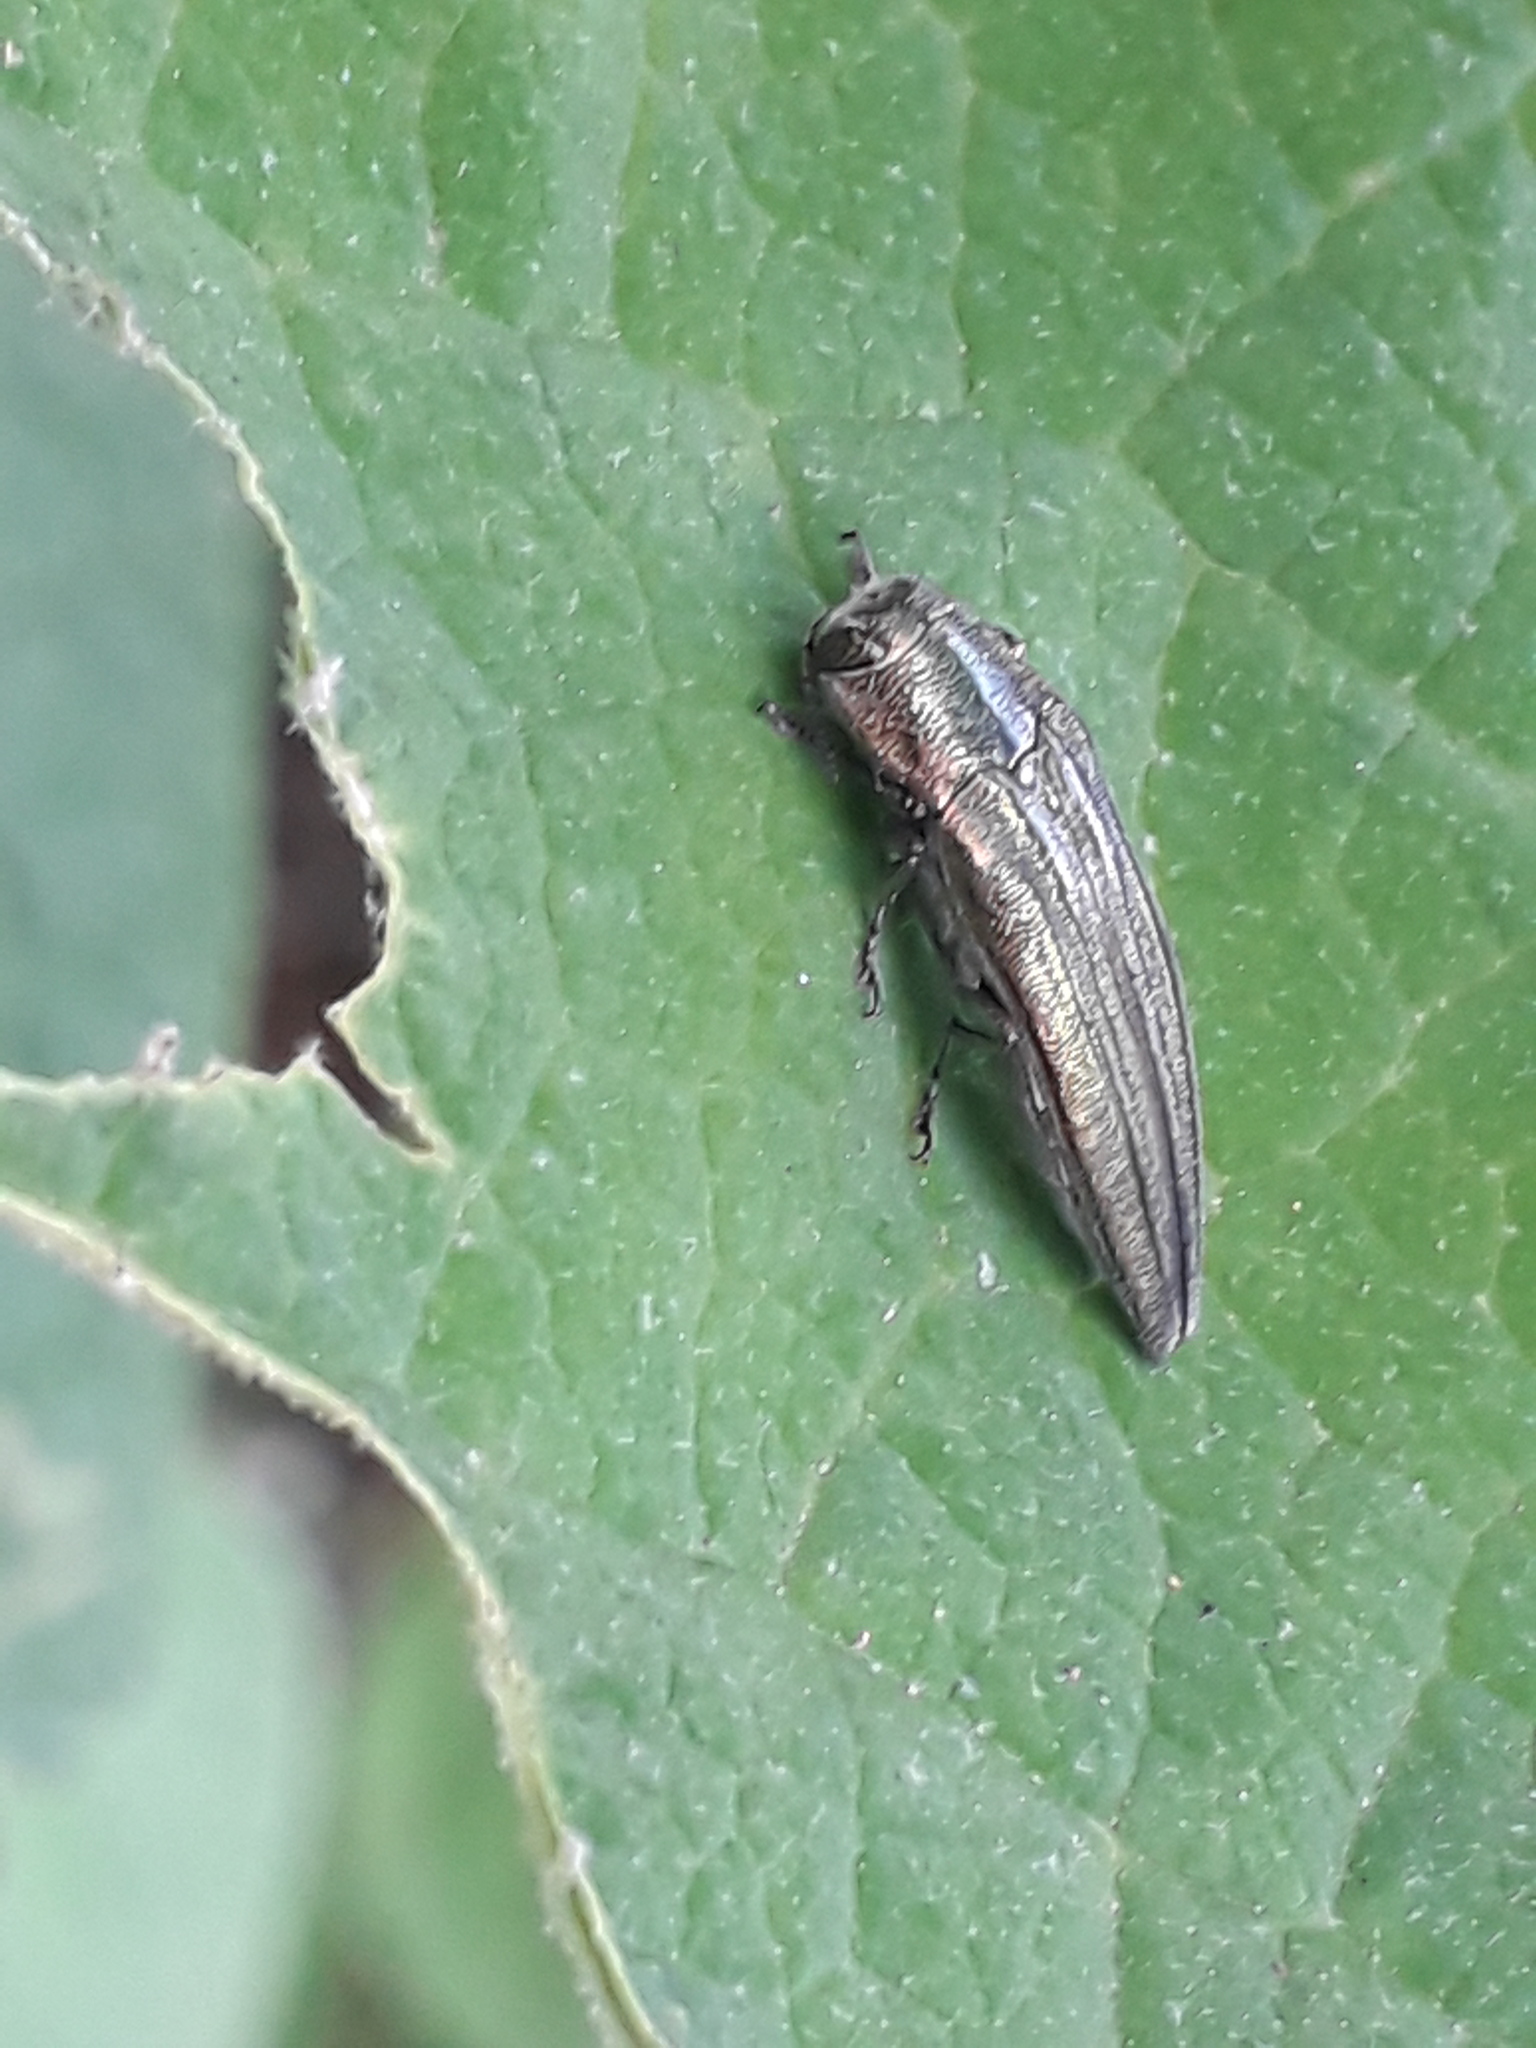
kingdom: Animalia
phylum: Arthropoda
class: Insecta
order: Coleoptera
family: Buprestidae
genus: Agrilus
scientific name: Agrilus sulcatulus
